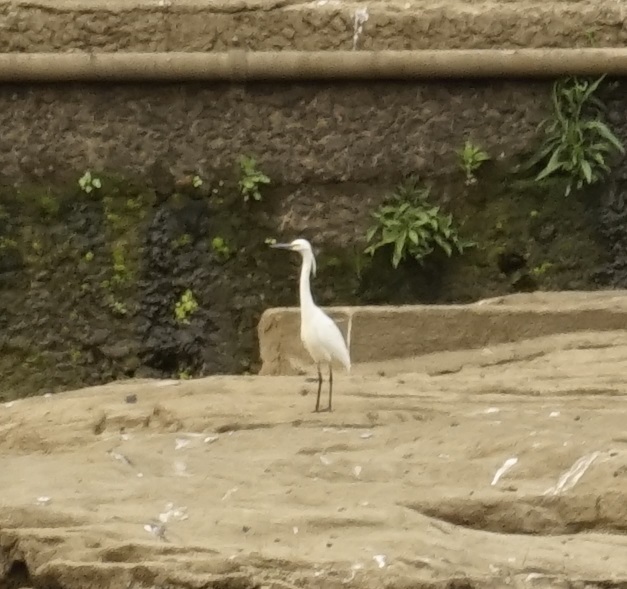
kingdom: Animalia
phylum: Chordata
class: Aves
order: Pelecaniformes
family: Ardeidae
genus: Egretta
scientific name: Egretta garzetta
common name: Little egret
